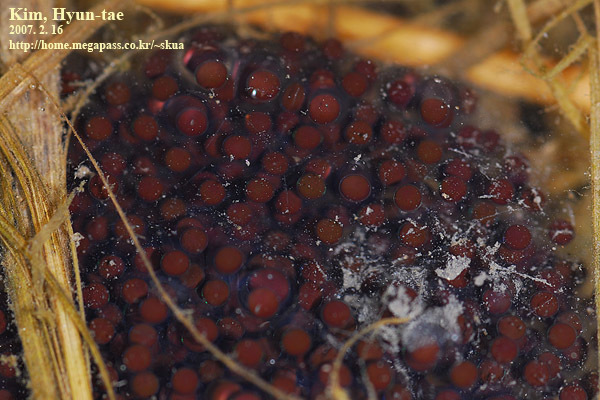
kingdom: Animalia
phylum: Chordata
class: Amphibia
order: Anura
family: Ranidae
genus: Rana
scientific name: Rana coreana
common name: Korean brown frog
